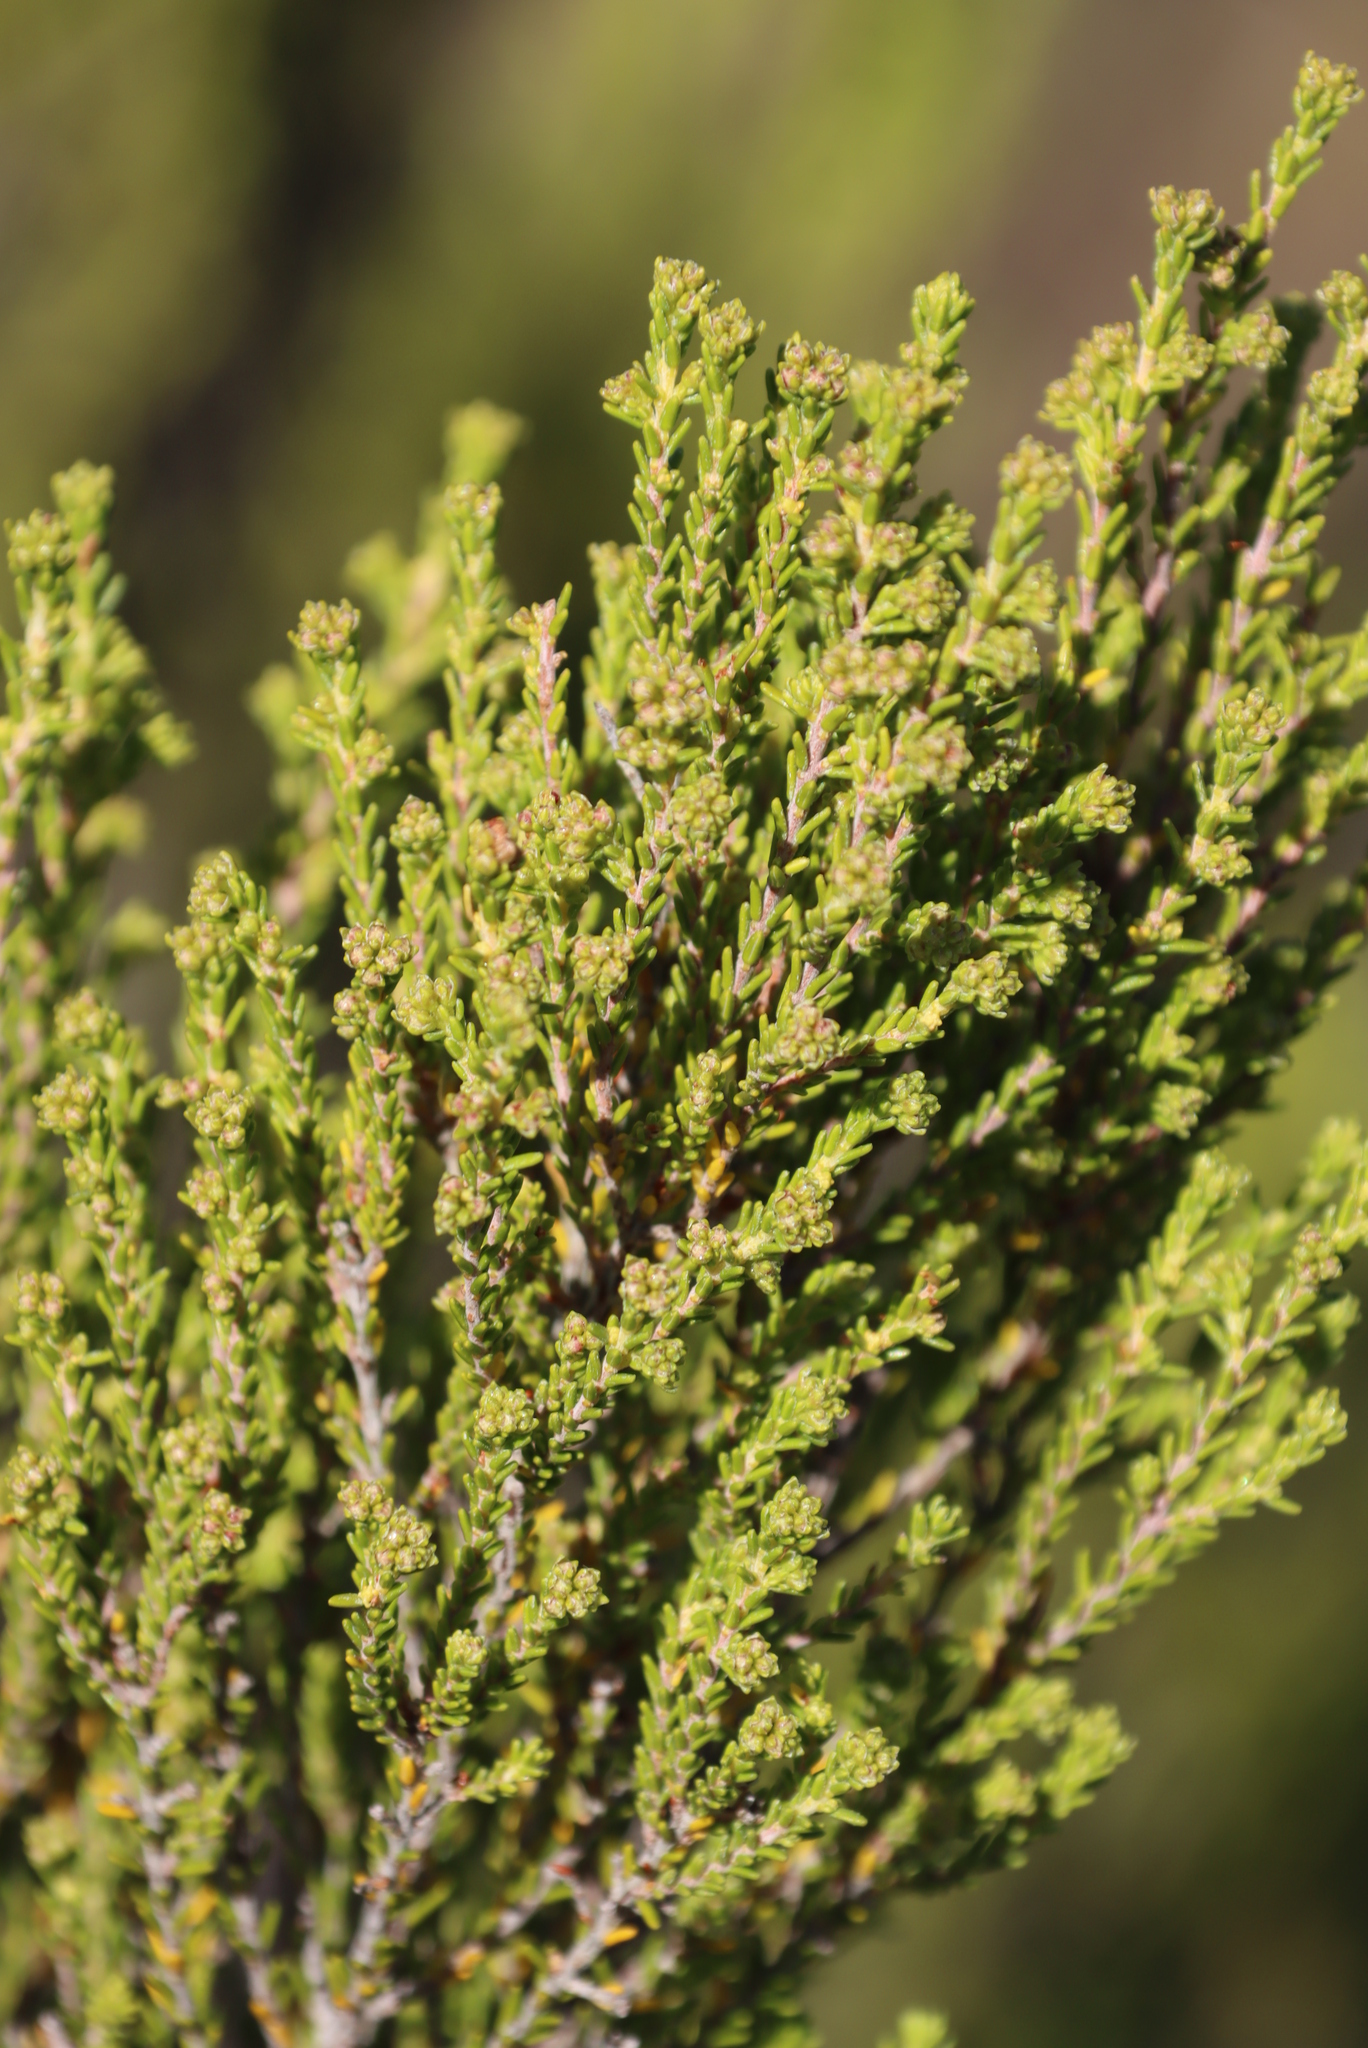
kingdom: Plantae
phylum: Tracheophyta
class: Magnoliopsida
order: Ericales
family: Ericaceae
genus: Erica
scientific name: Erica tristis
